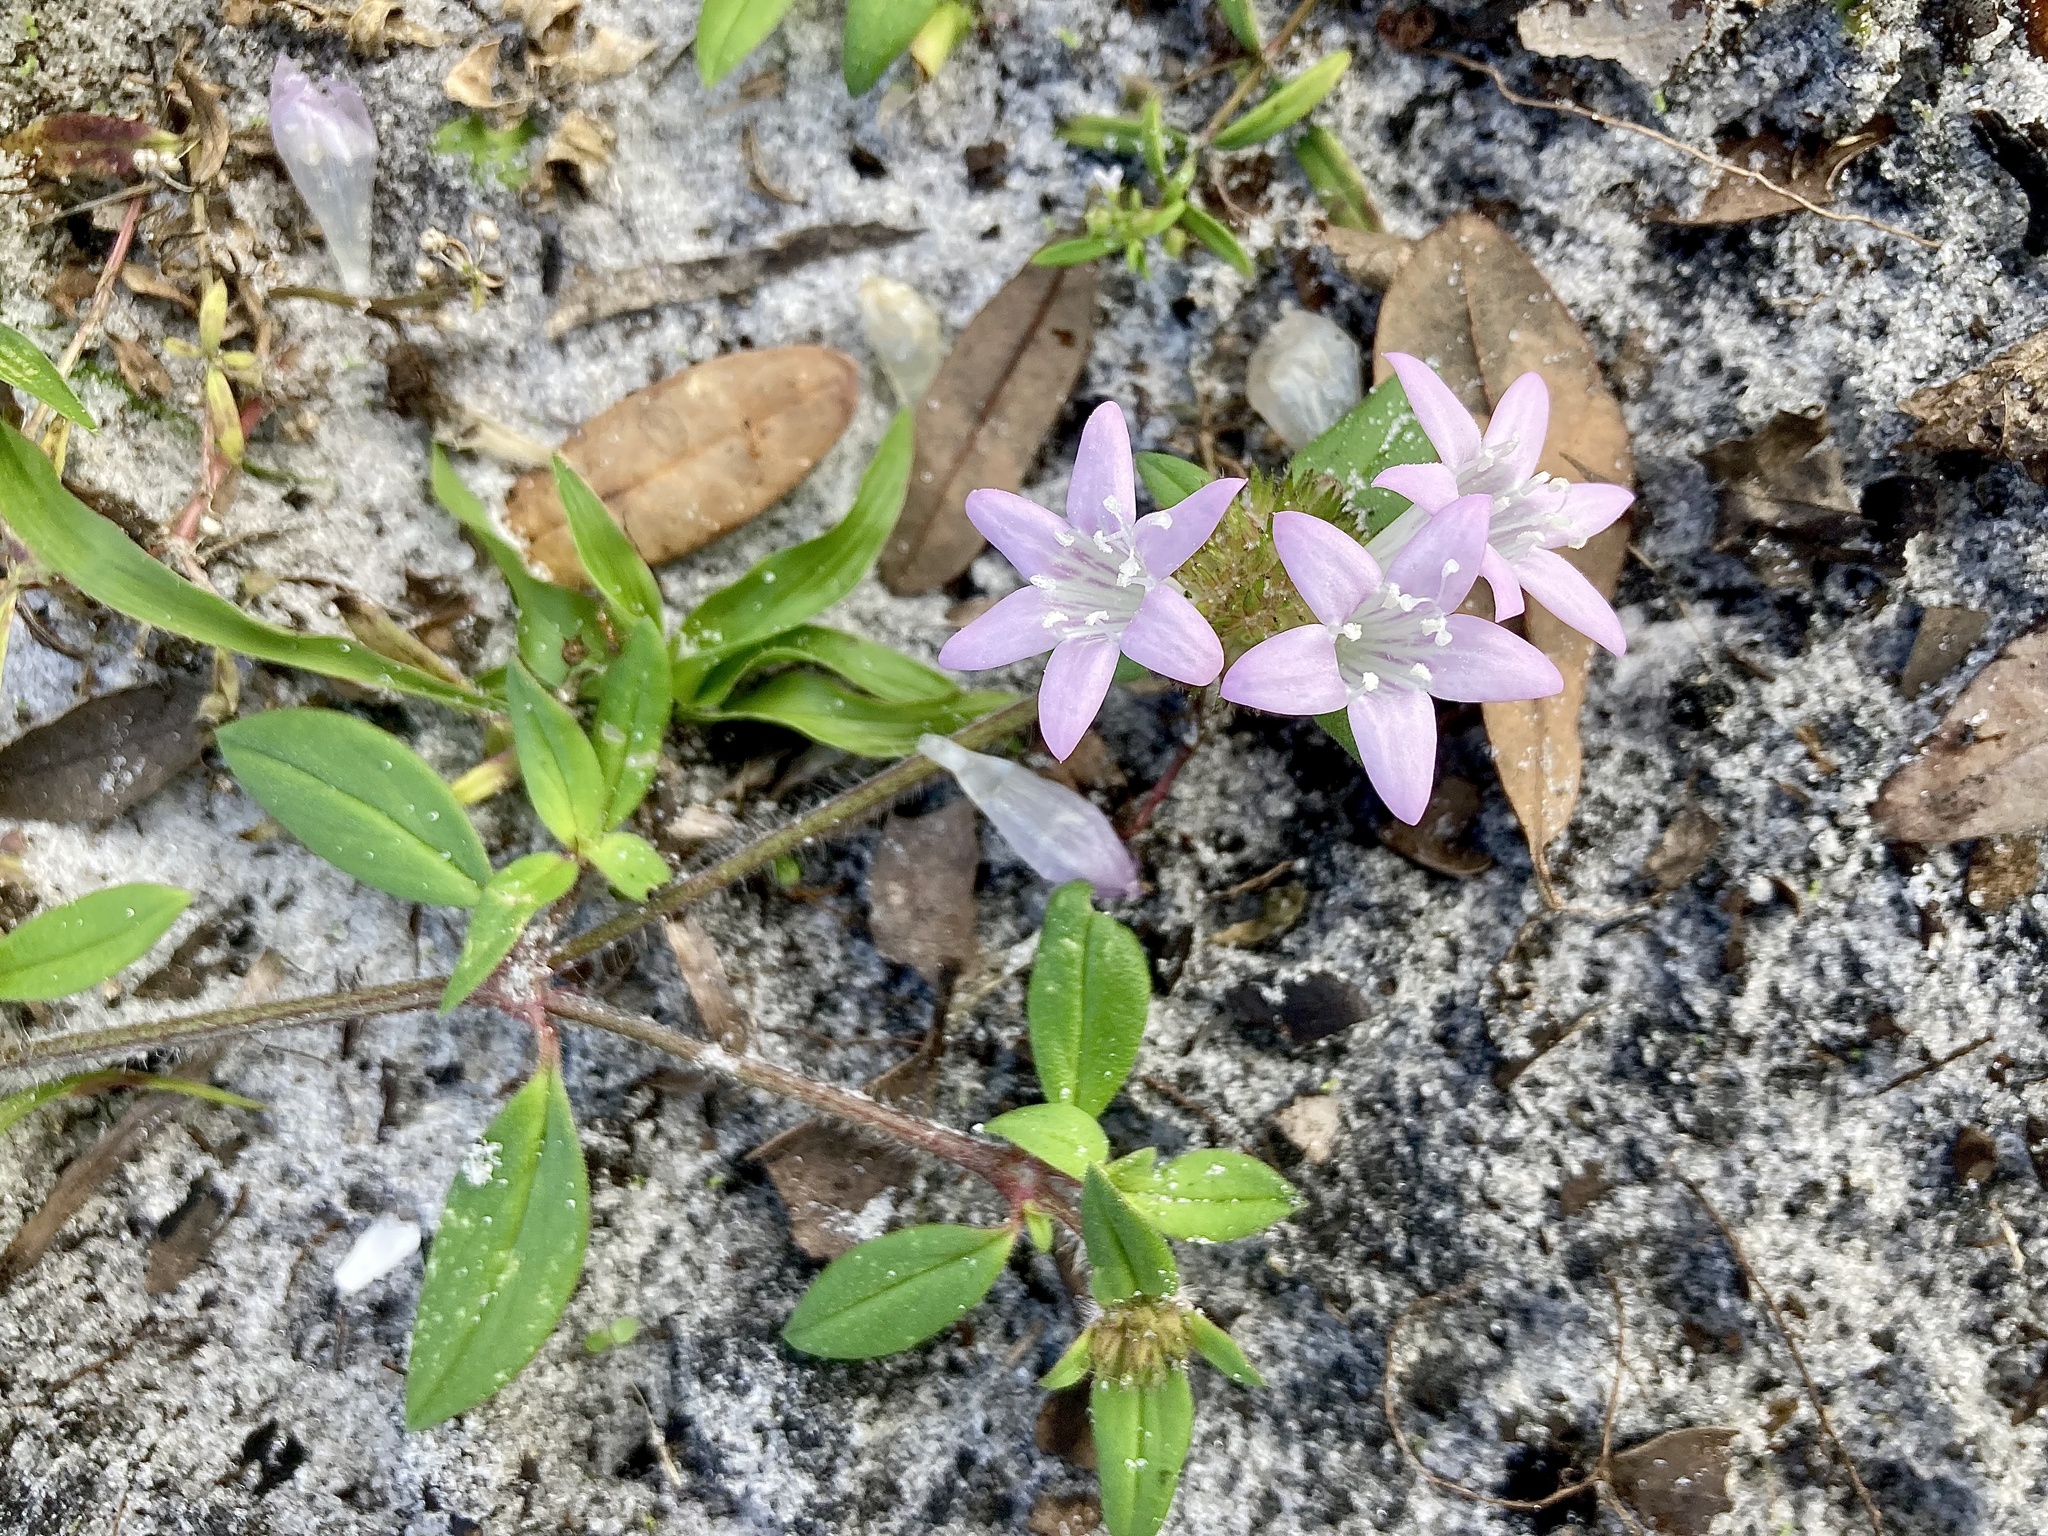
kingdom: Plantae
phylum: Tracheophyta
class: Magnoliopsida
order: Gentianales
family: Rubiaceae
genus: Richardia
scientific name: Richardia grandiflora
